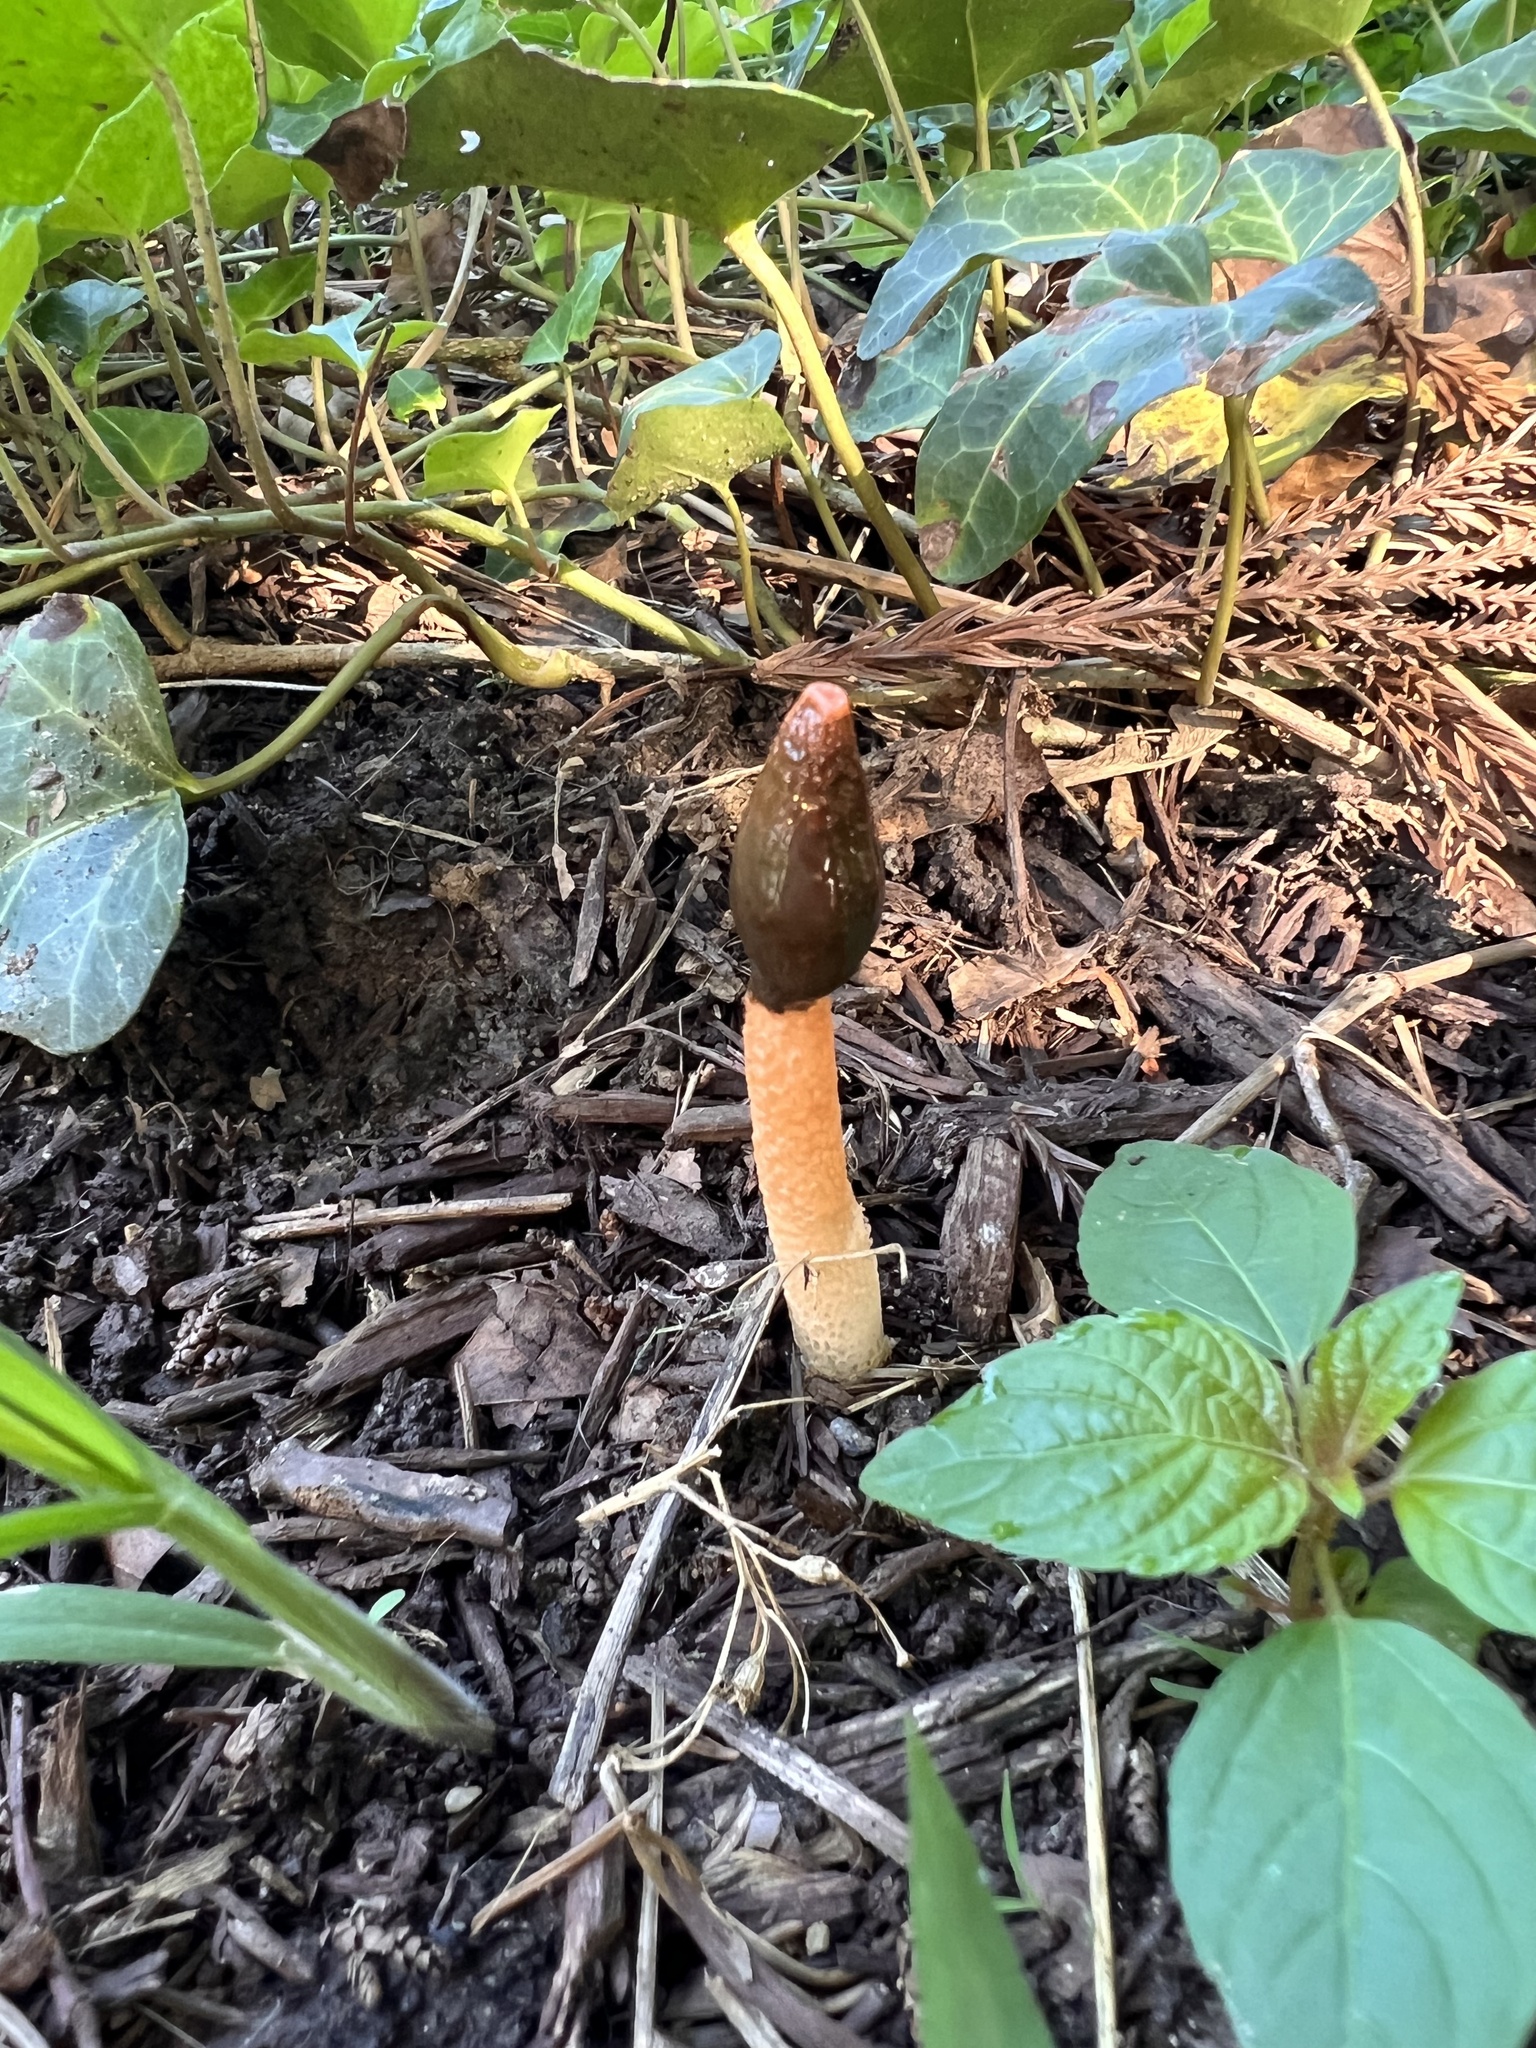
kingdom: Fungi
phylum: Basidiomycota
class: Agaricomycetes
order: Phallales
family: Phallaceae
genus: Phallus
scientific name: Phallus rugulosus
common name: Wrinkly stinkhorn
